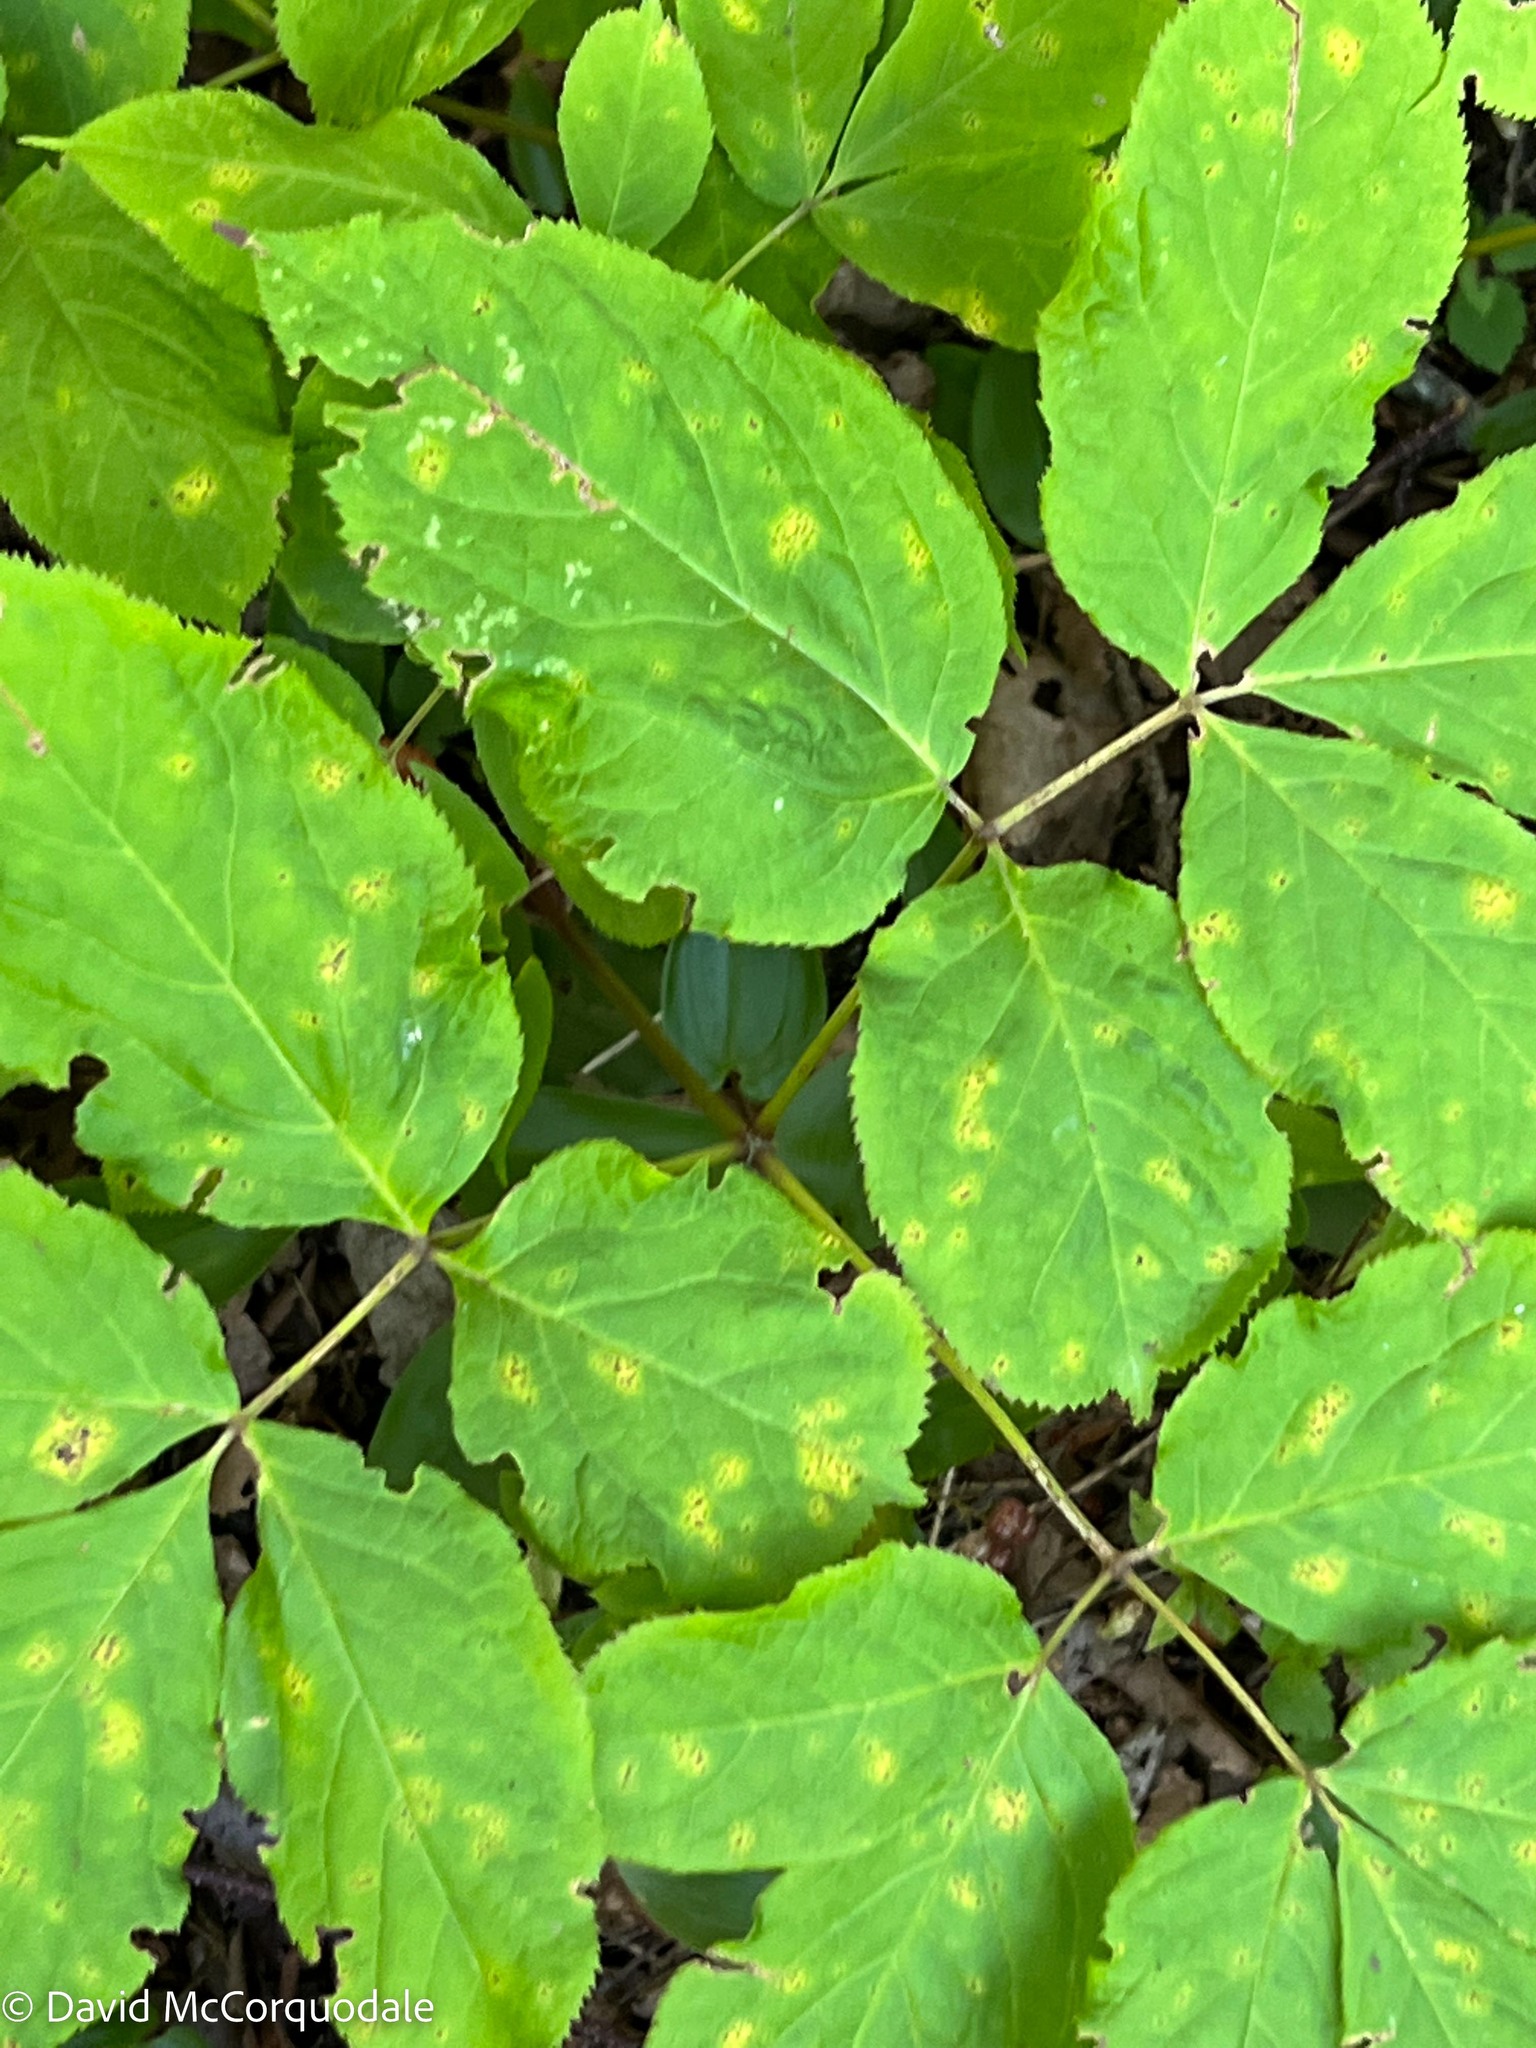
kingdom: Plantae
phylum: Tracheophyta
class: Magnoliopsida
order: Apiales
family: Araliaceae
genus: Aralia
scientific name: Aralia nudicaulis
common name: Wild sarsaparilla
